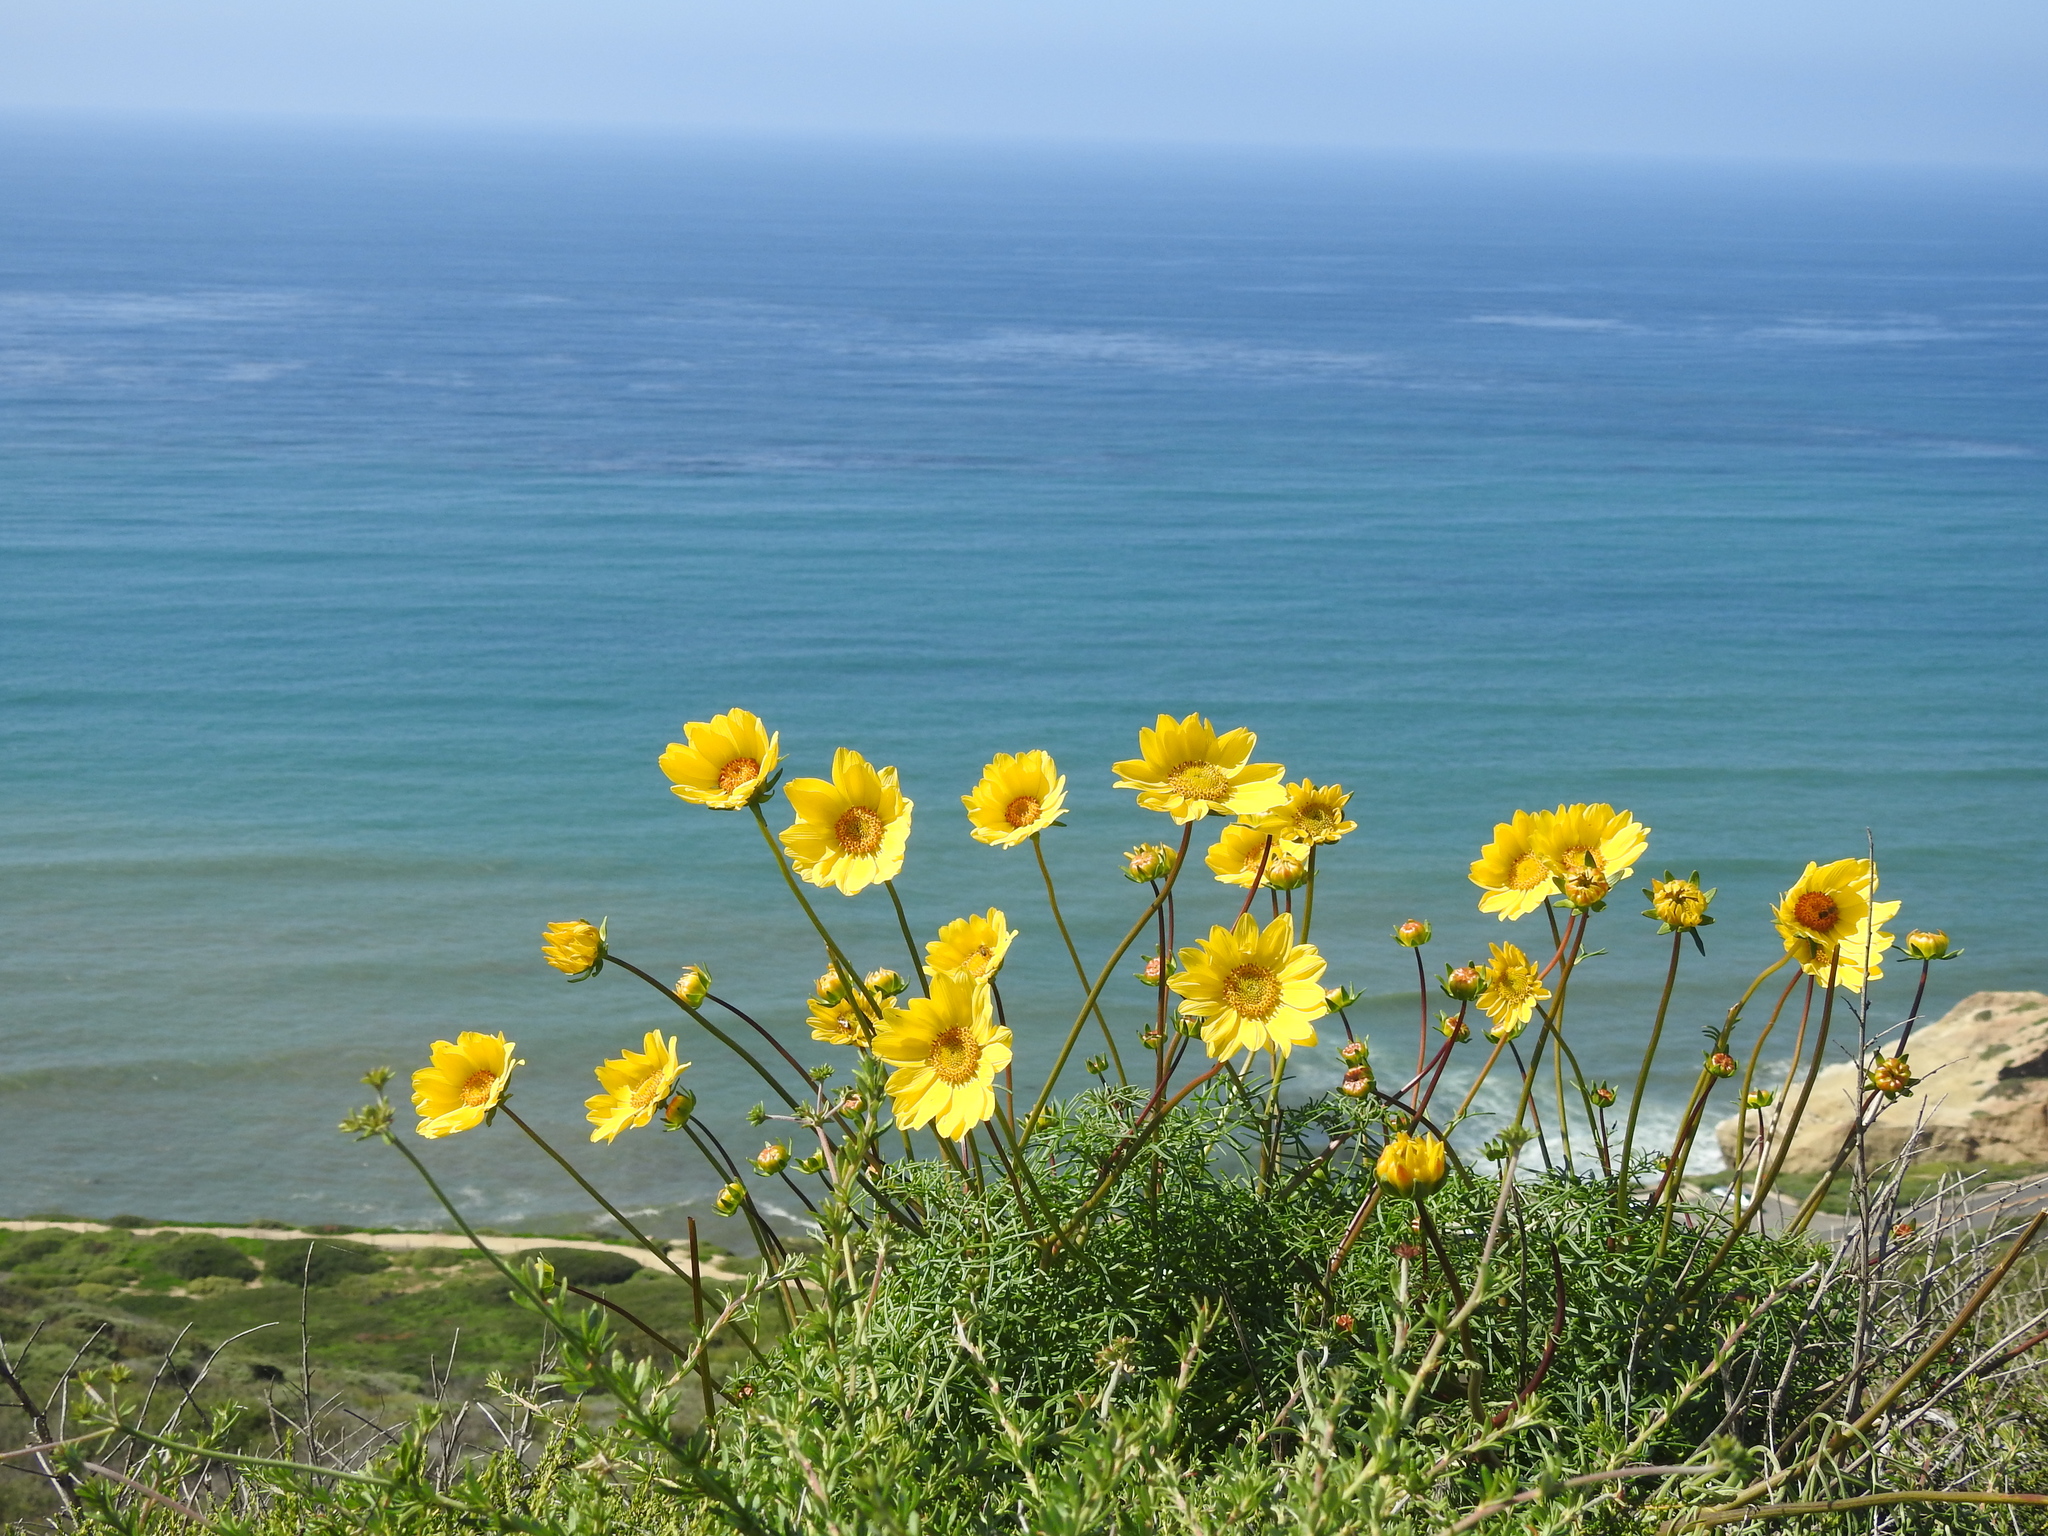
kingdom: Plantae
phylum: Tracheophyta
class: Magnoliopsida
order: Asterales
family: Asteraceae
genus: Coreopsis
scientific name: Coreopsis maritima
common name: Sea-dahlia
